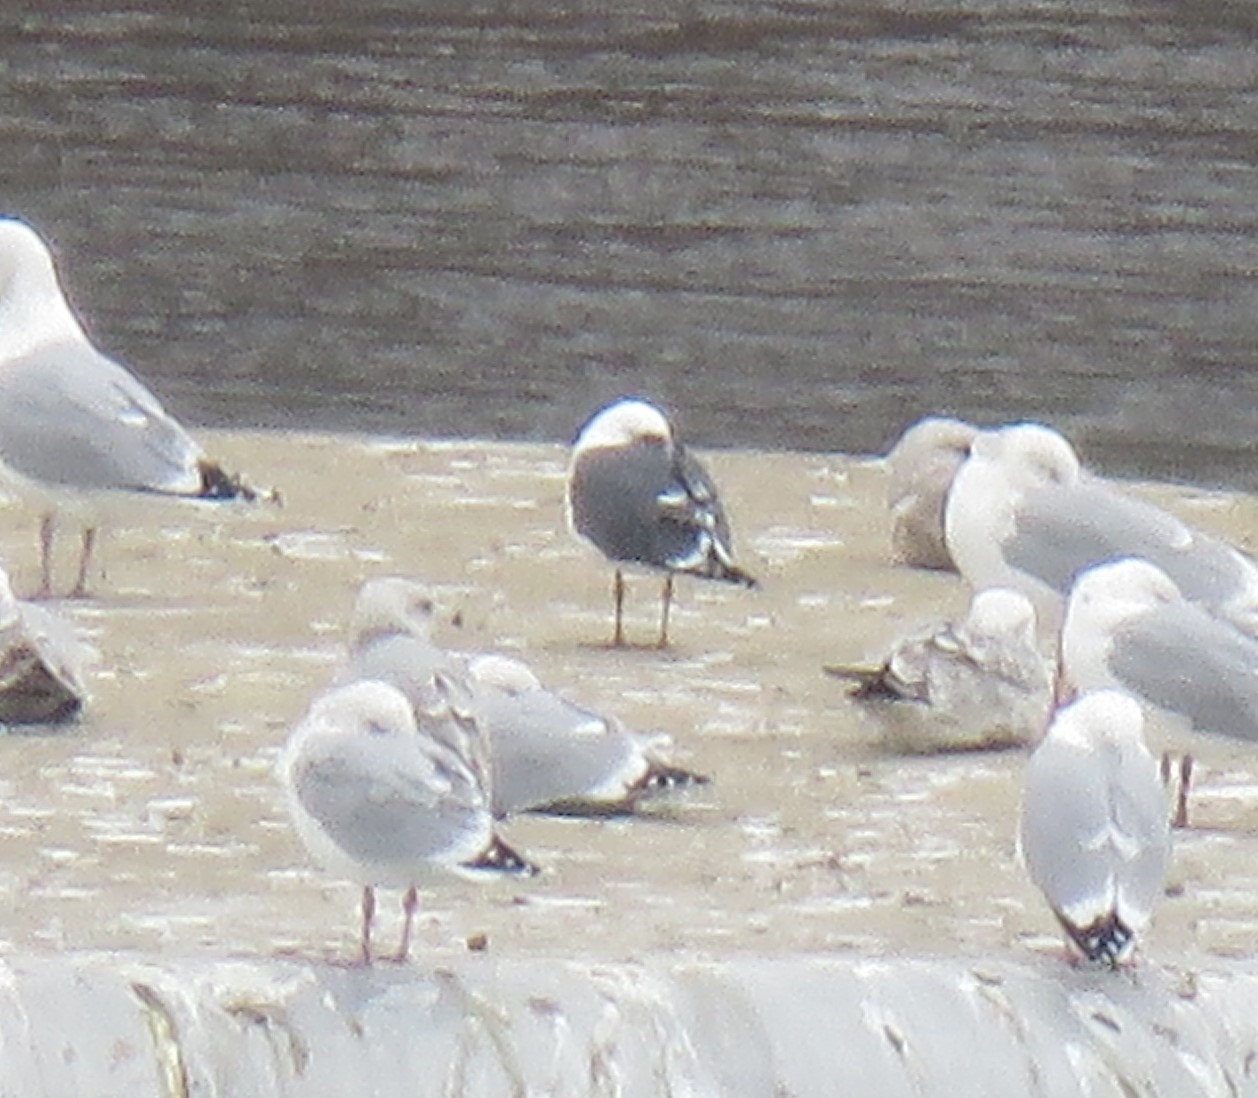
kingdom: Animalia
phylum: Chordata
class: Aves
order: Charadriiformes
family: Laridae
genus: Larus
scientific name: Larus fuscus
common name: Lesser black-backed gull
